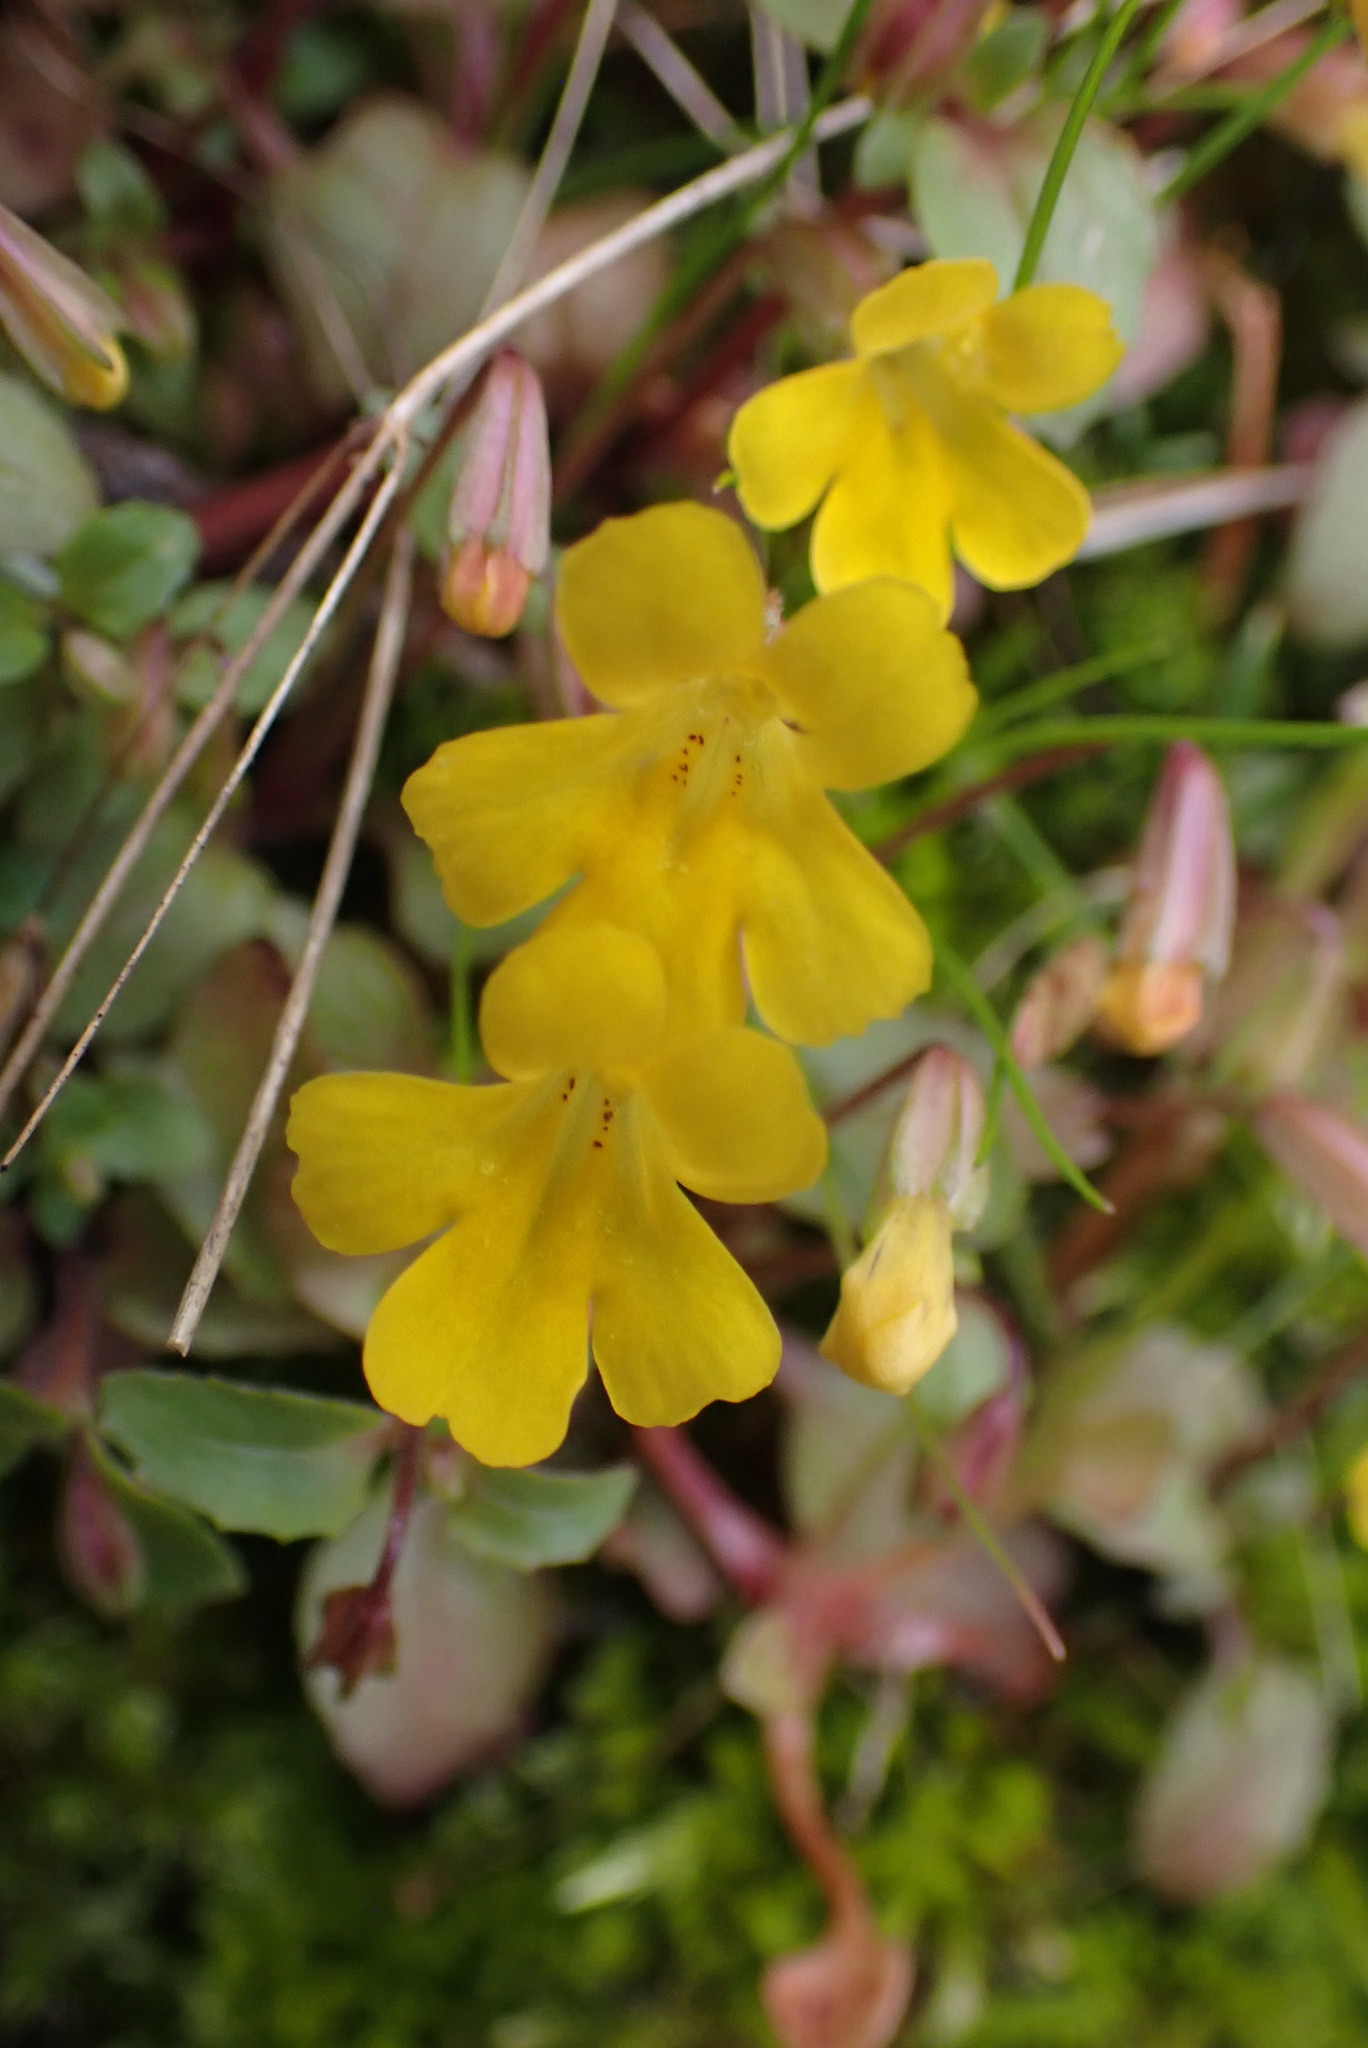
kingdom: Plantae
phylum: Tracheophyta
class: Magnoliopsida
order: Lamiales
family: Phrymaceae
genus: Erythranthe
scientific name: Erythranthe alsinoides
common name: Chickweed monkeyflower
